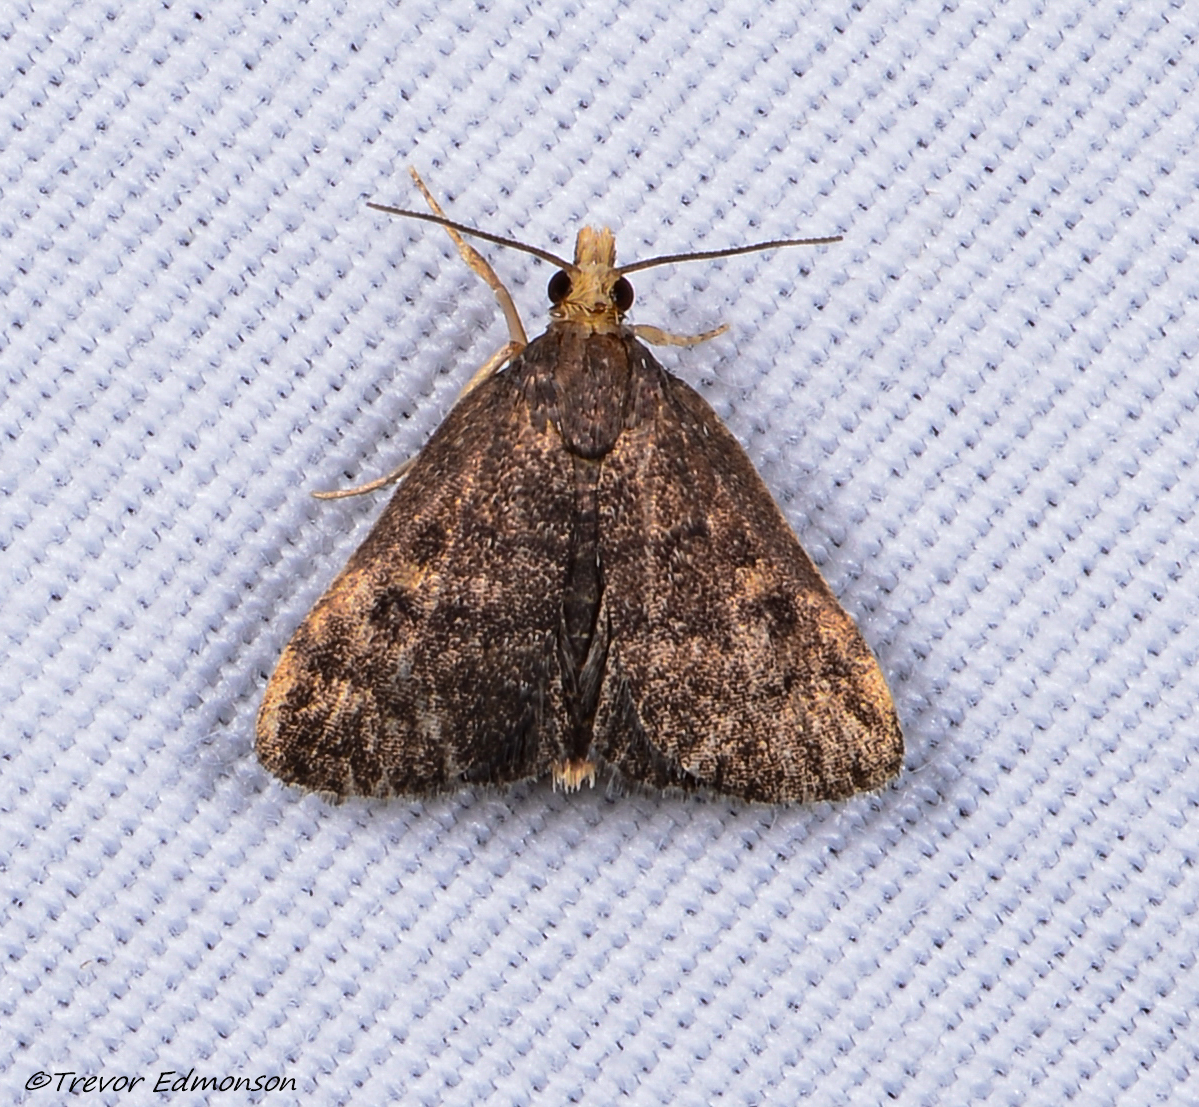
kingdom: Animalia
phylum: Arthropoda
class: Insecta
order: Lepidoptera
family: Crambidae
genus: Pyrausta
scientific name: Pyrausta merrickalis
